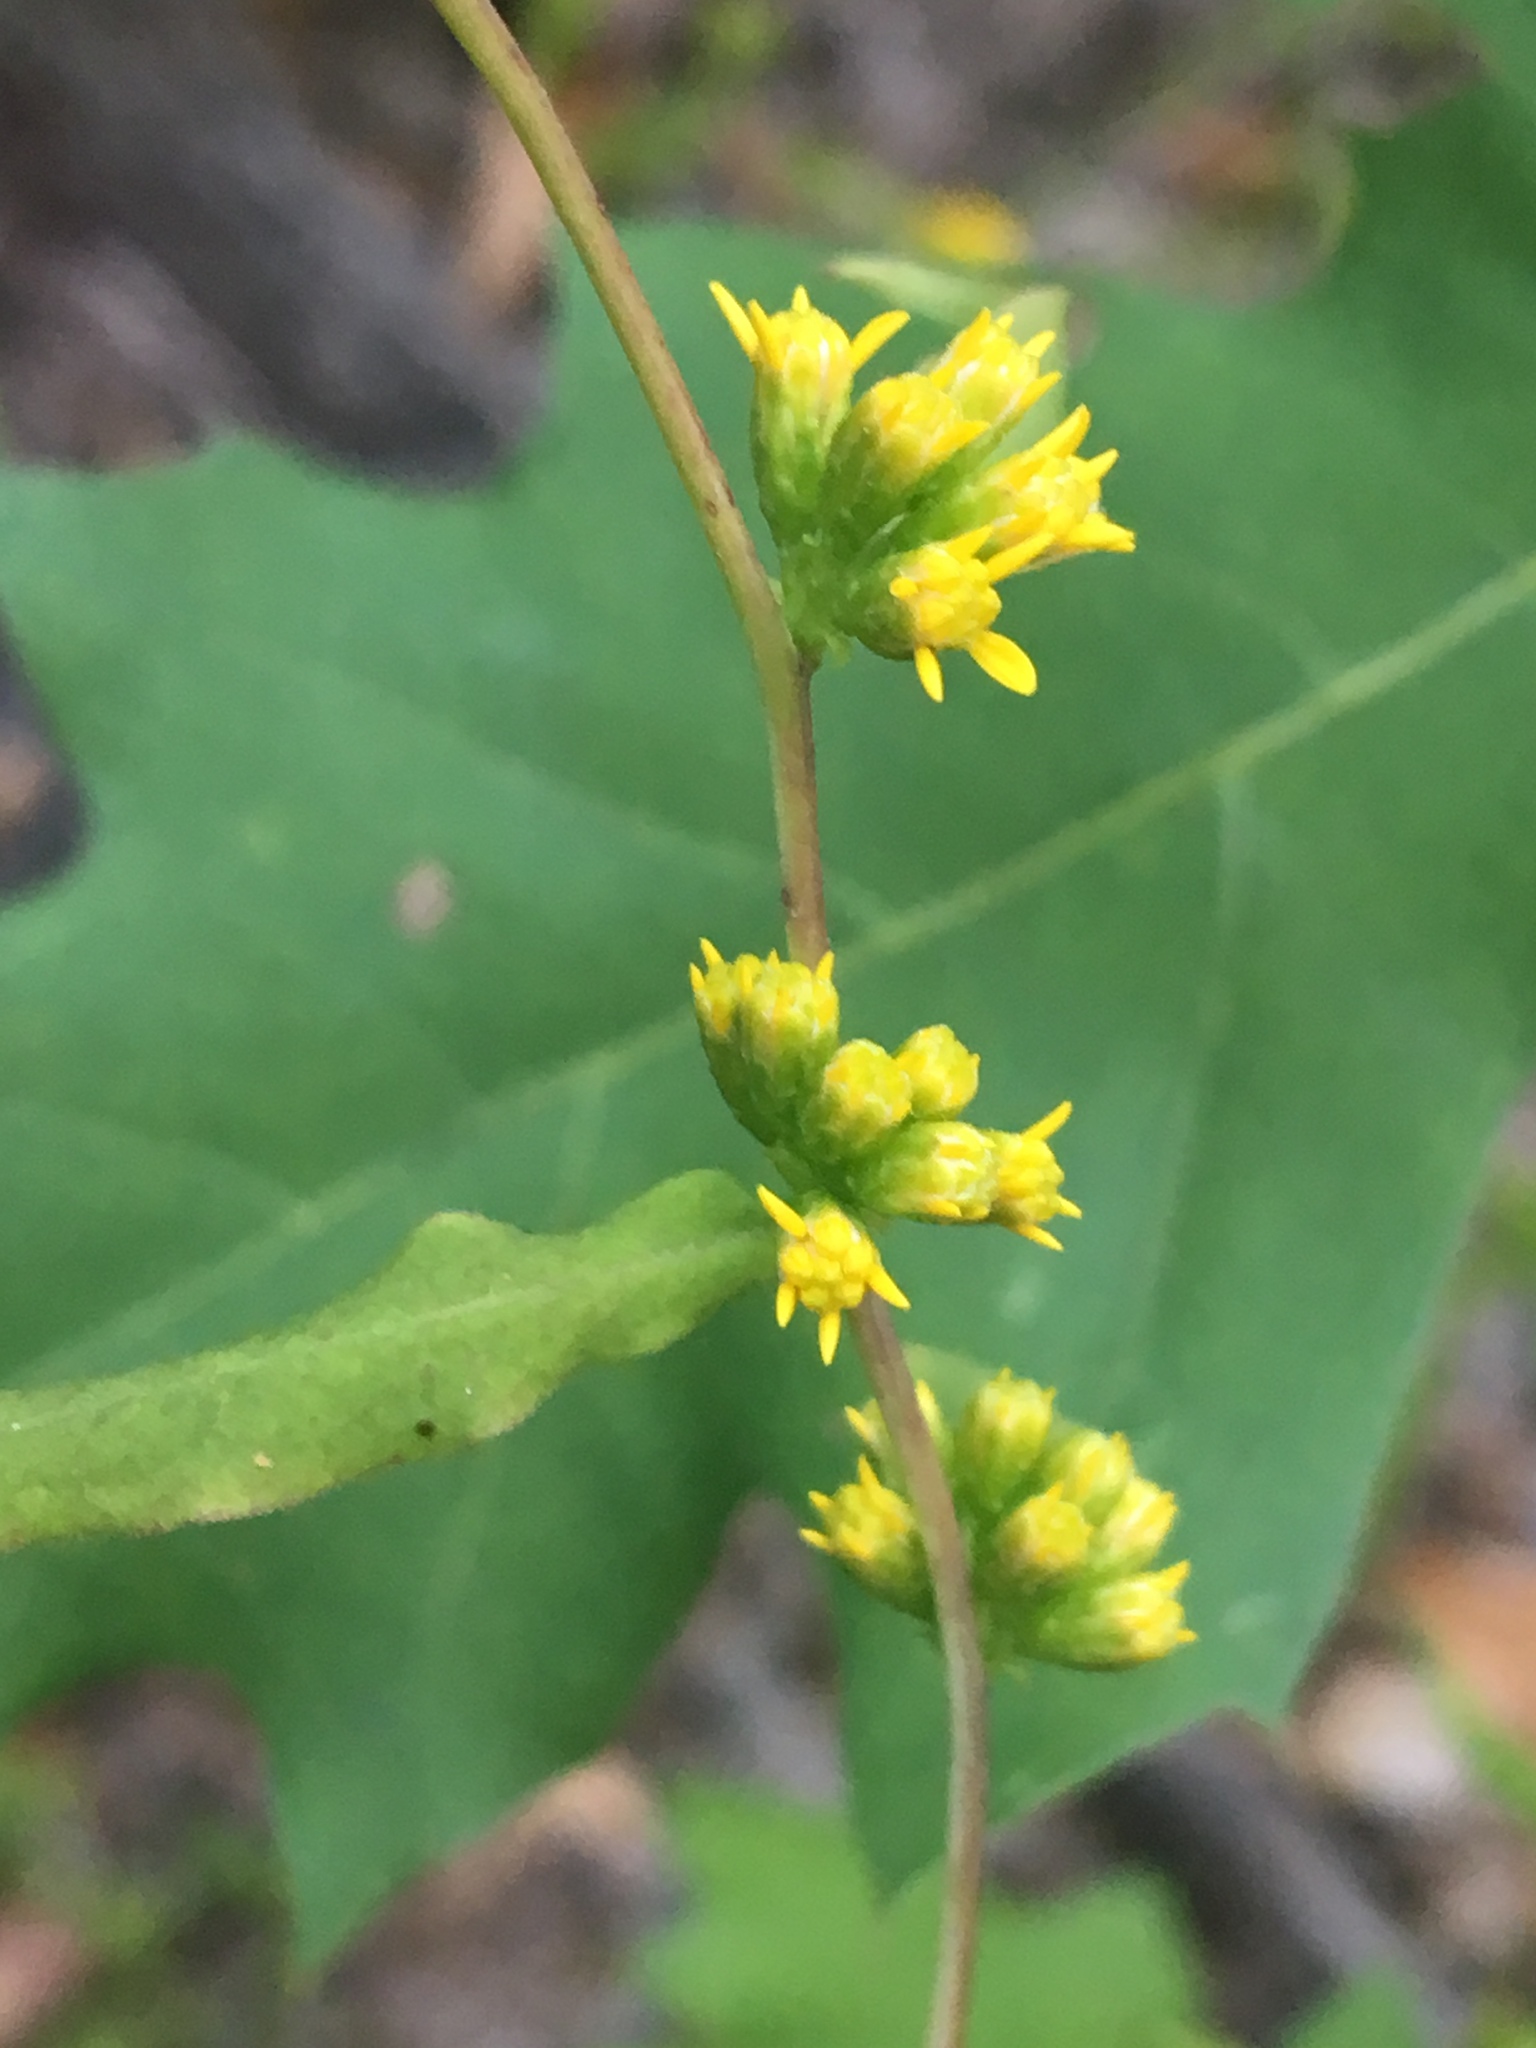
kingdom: Plantae
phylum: Tracheophyta
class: Magnoliopsida
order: Asterales
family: Asteraceae
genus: Solidago
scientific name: Solidago caesia
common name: Woodland goldenrod
